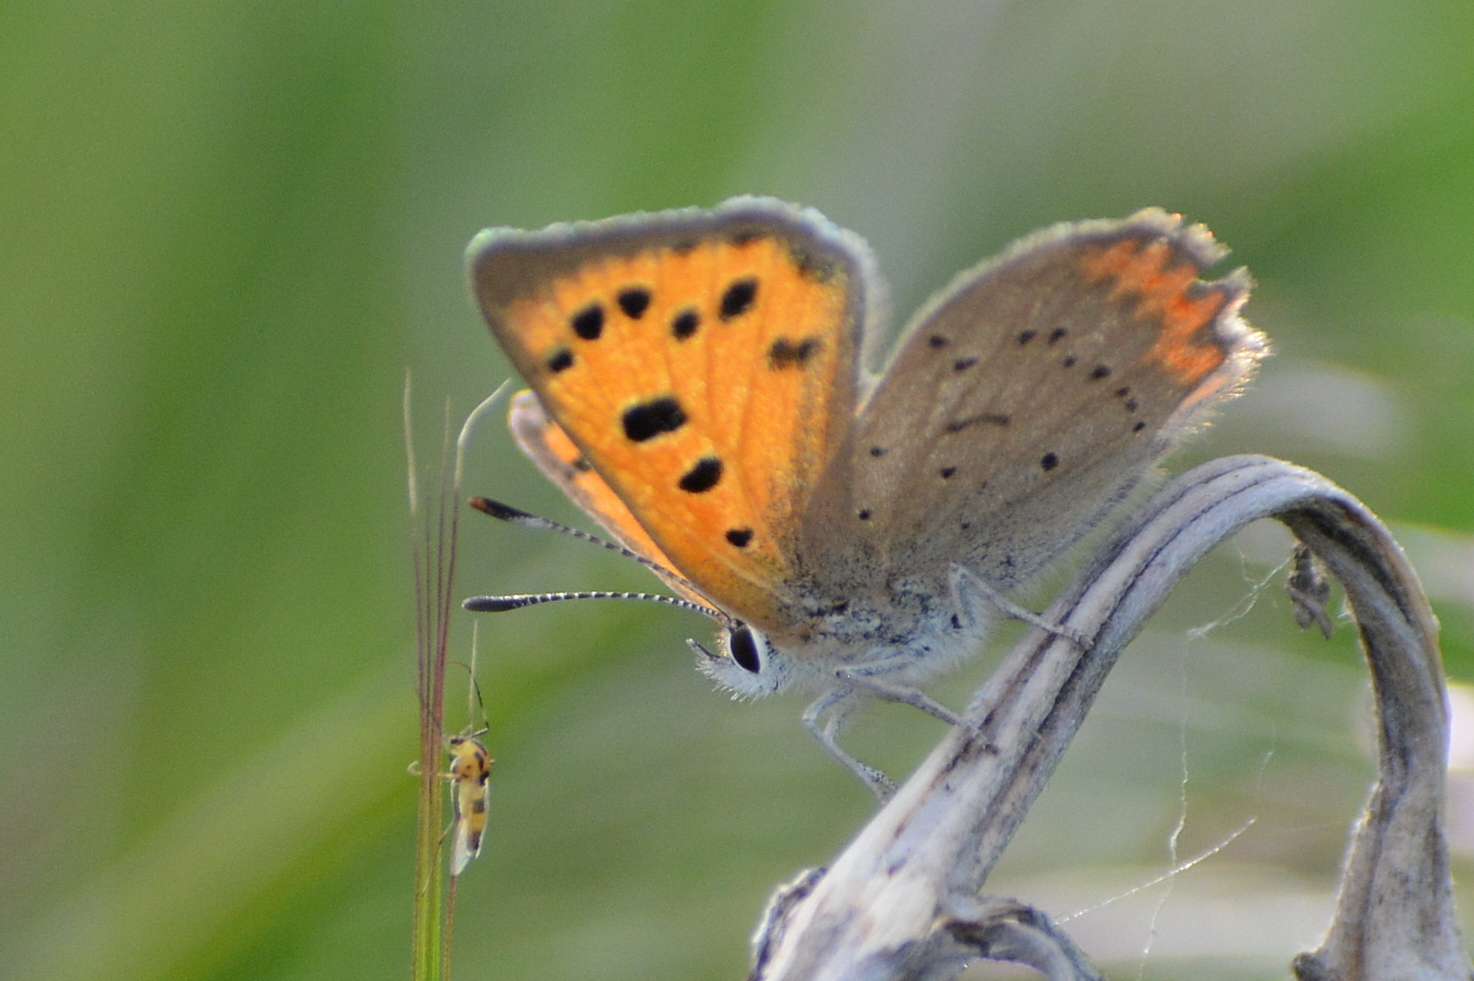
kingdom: Animalia
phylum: Arthropoda
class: Insecta
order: Lepidoptera
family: Lycaenidae
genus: Lycaena
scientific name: Lycaena phlaeas
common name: Small copper
